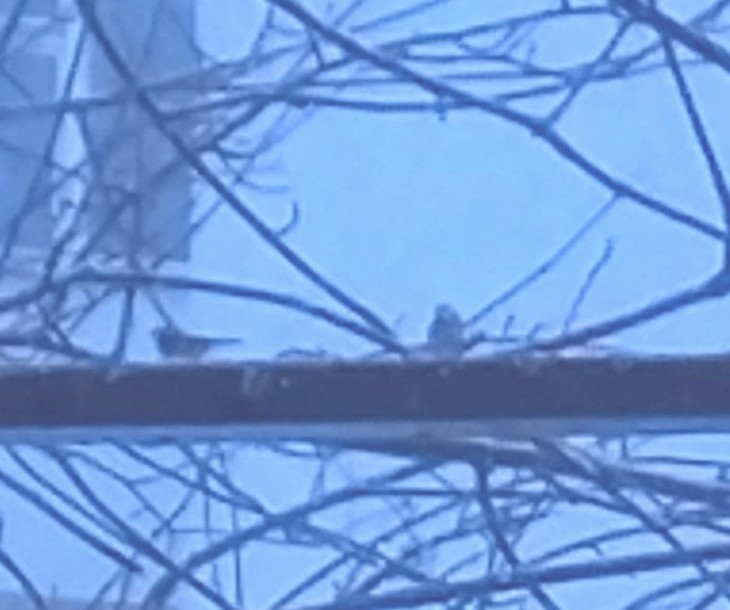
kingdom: Animalia
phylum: Chordata
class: Aves
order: Passeriformes
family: Paridae
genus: Cyanistes
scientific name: Cyanistes caeruleus
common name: Eurasian blue tit
